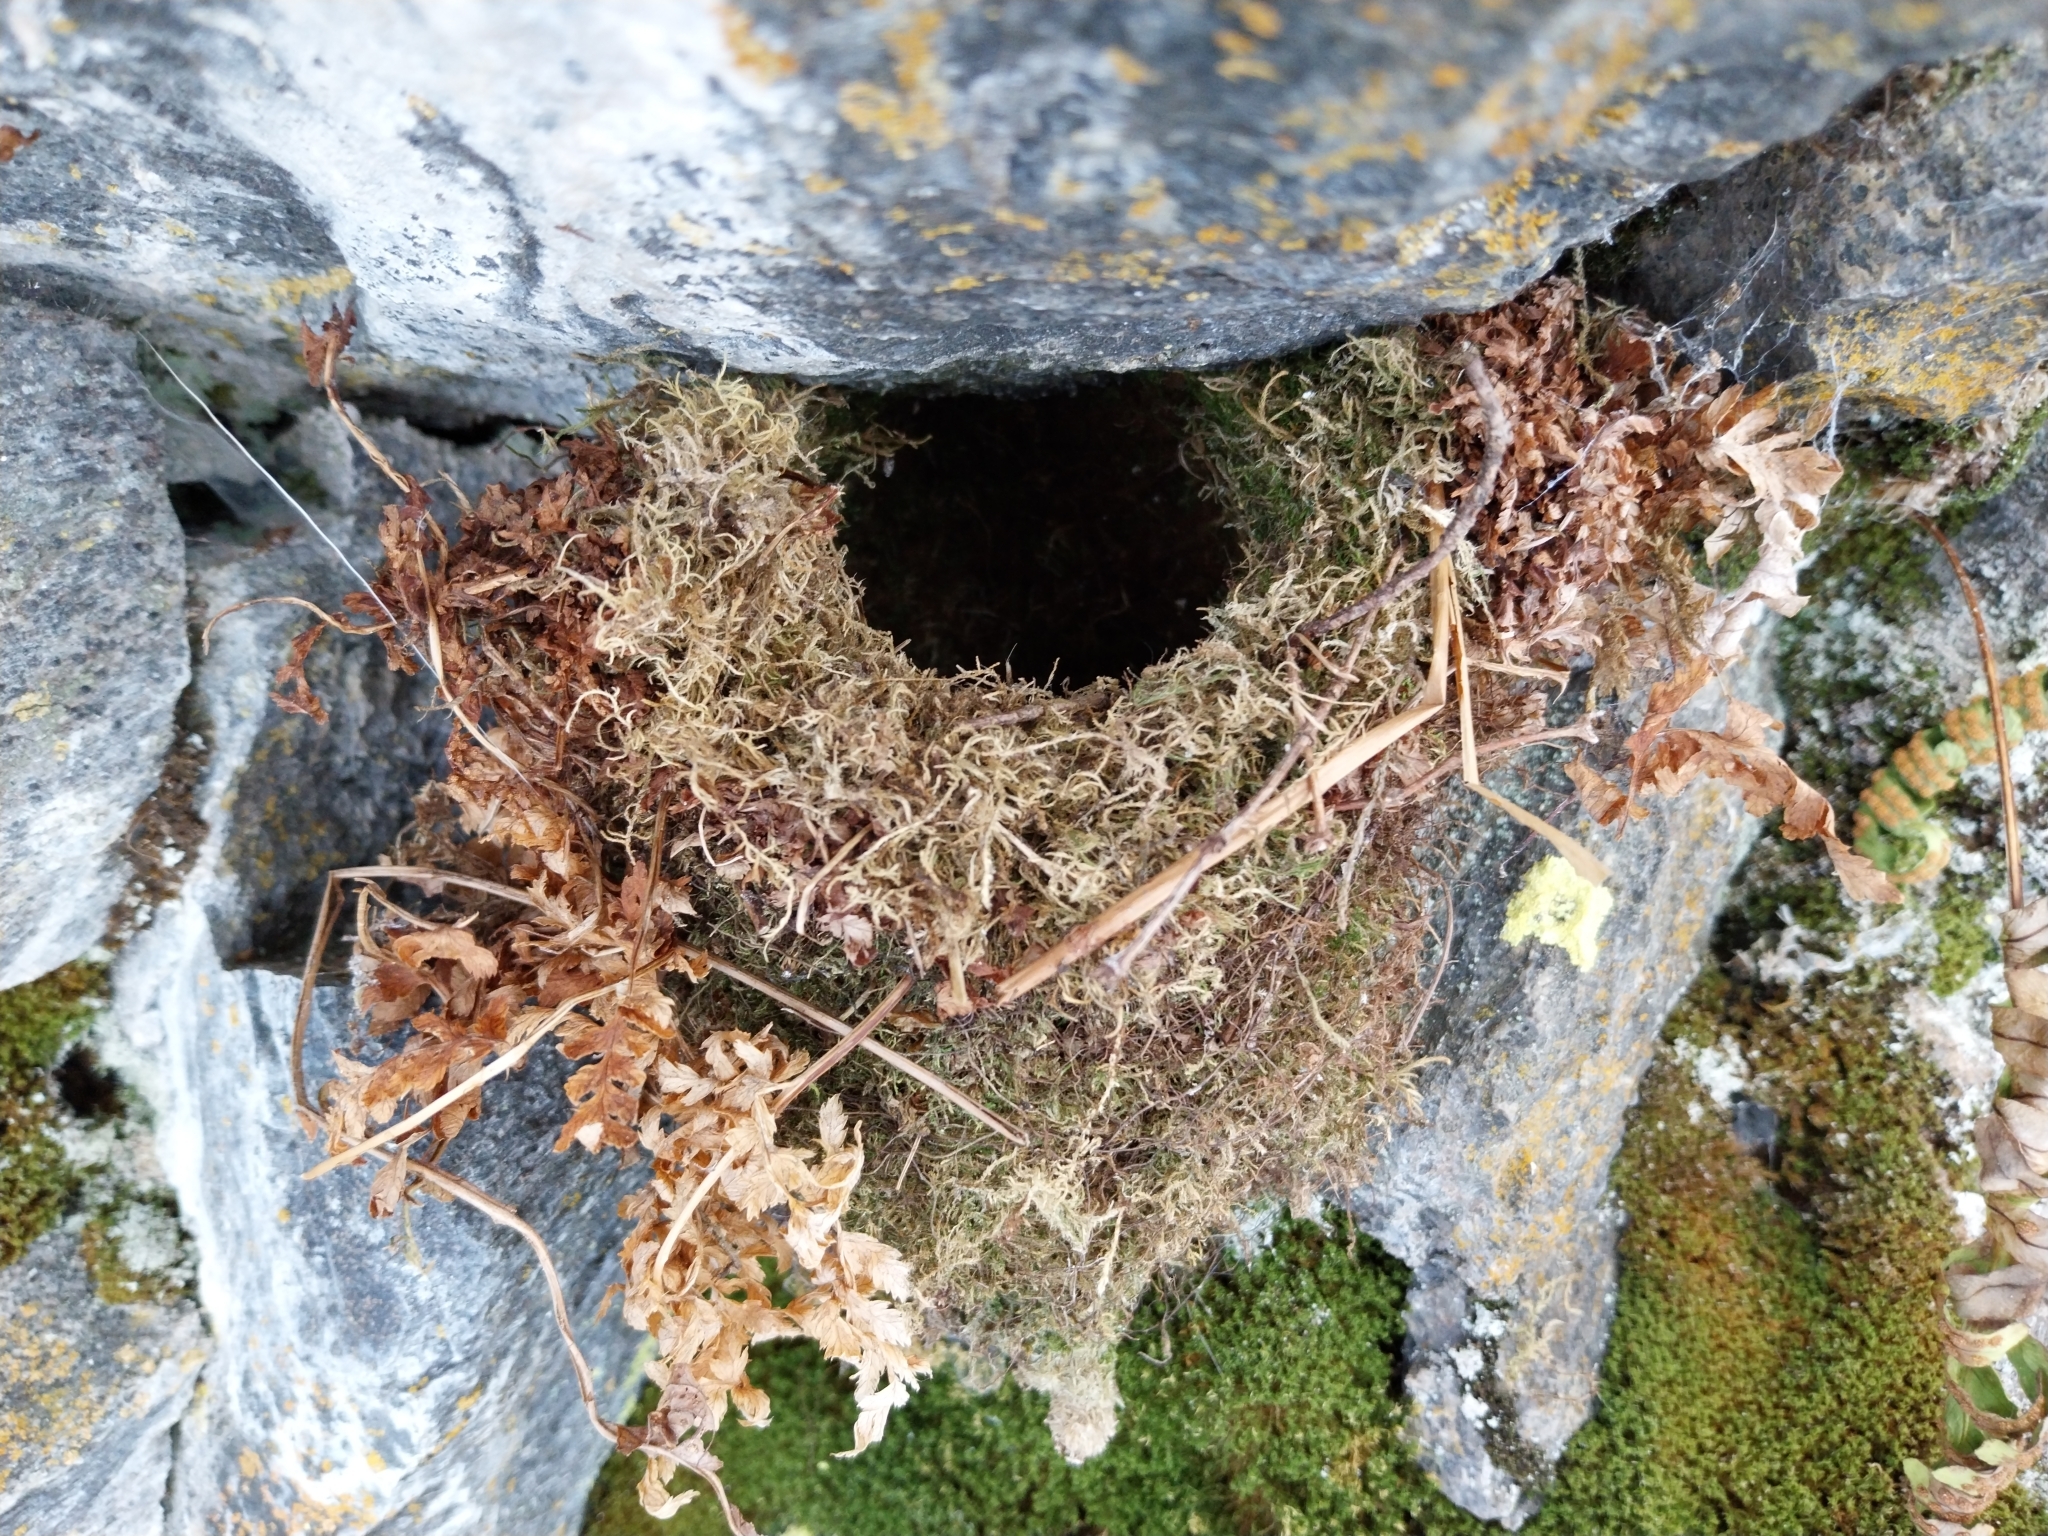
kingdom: Animalia
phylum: Chordata
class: Aves
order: Passeriformes
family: Troglodytidae
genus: Troglodytes
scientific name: Troglodytes troglodytes
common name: Eurasian wren
